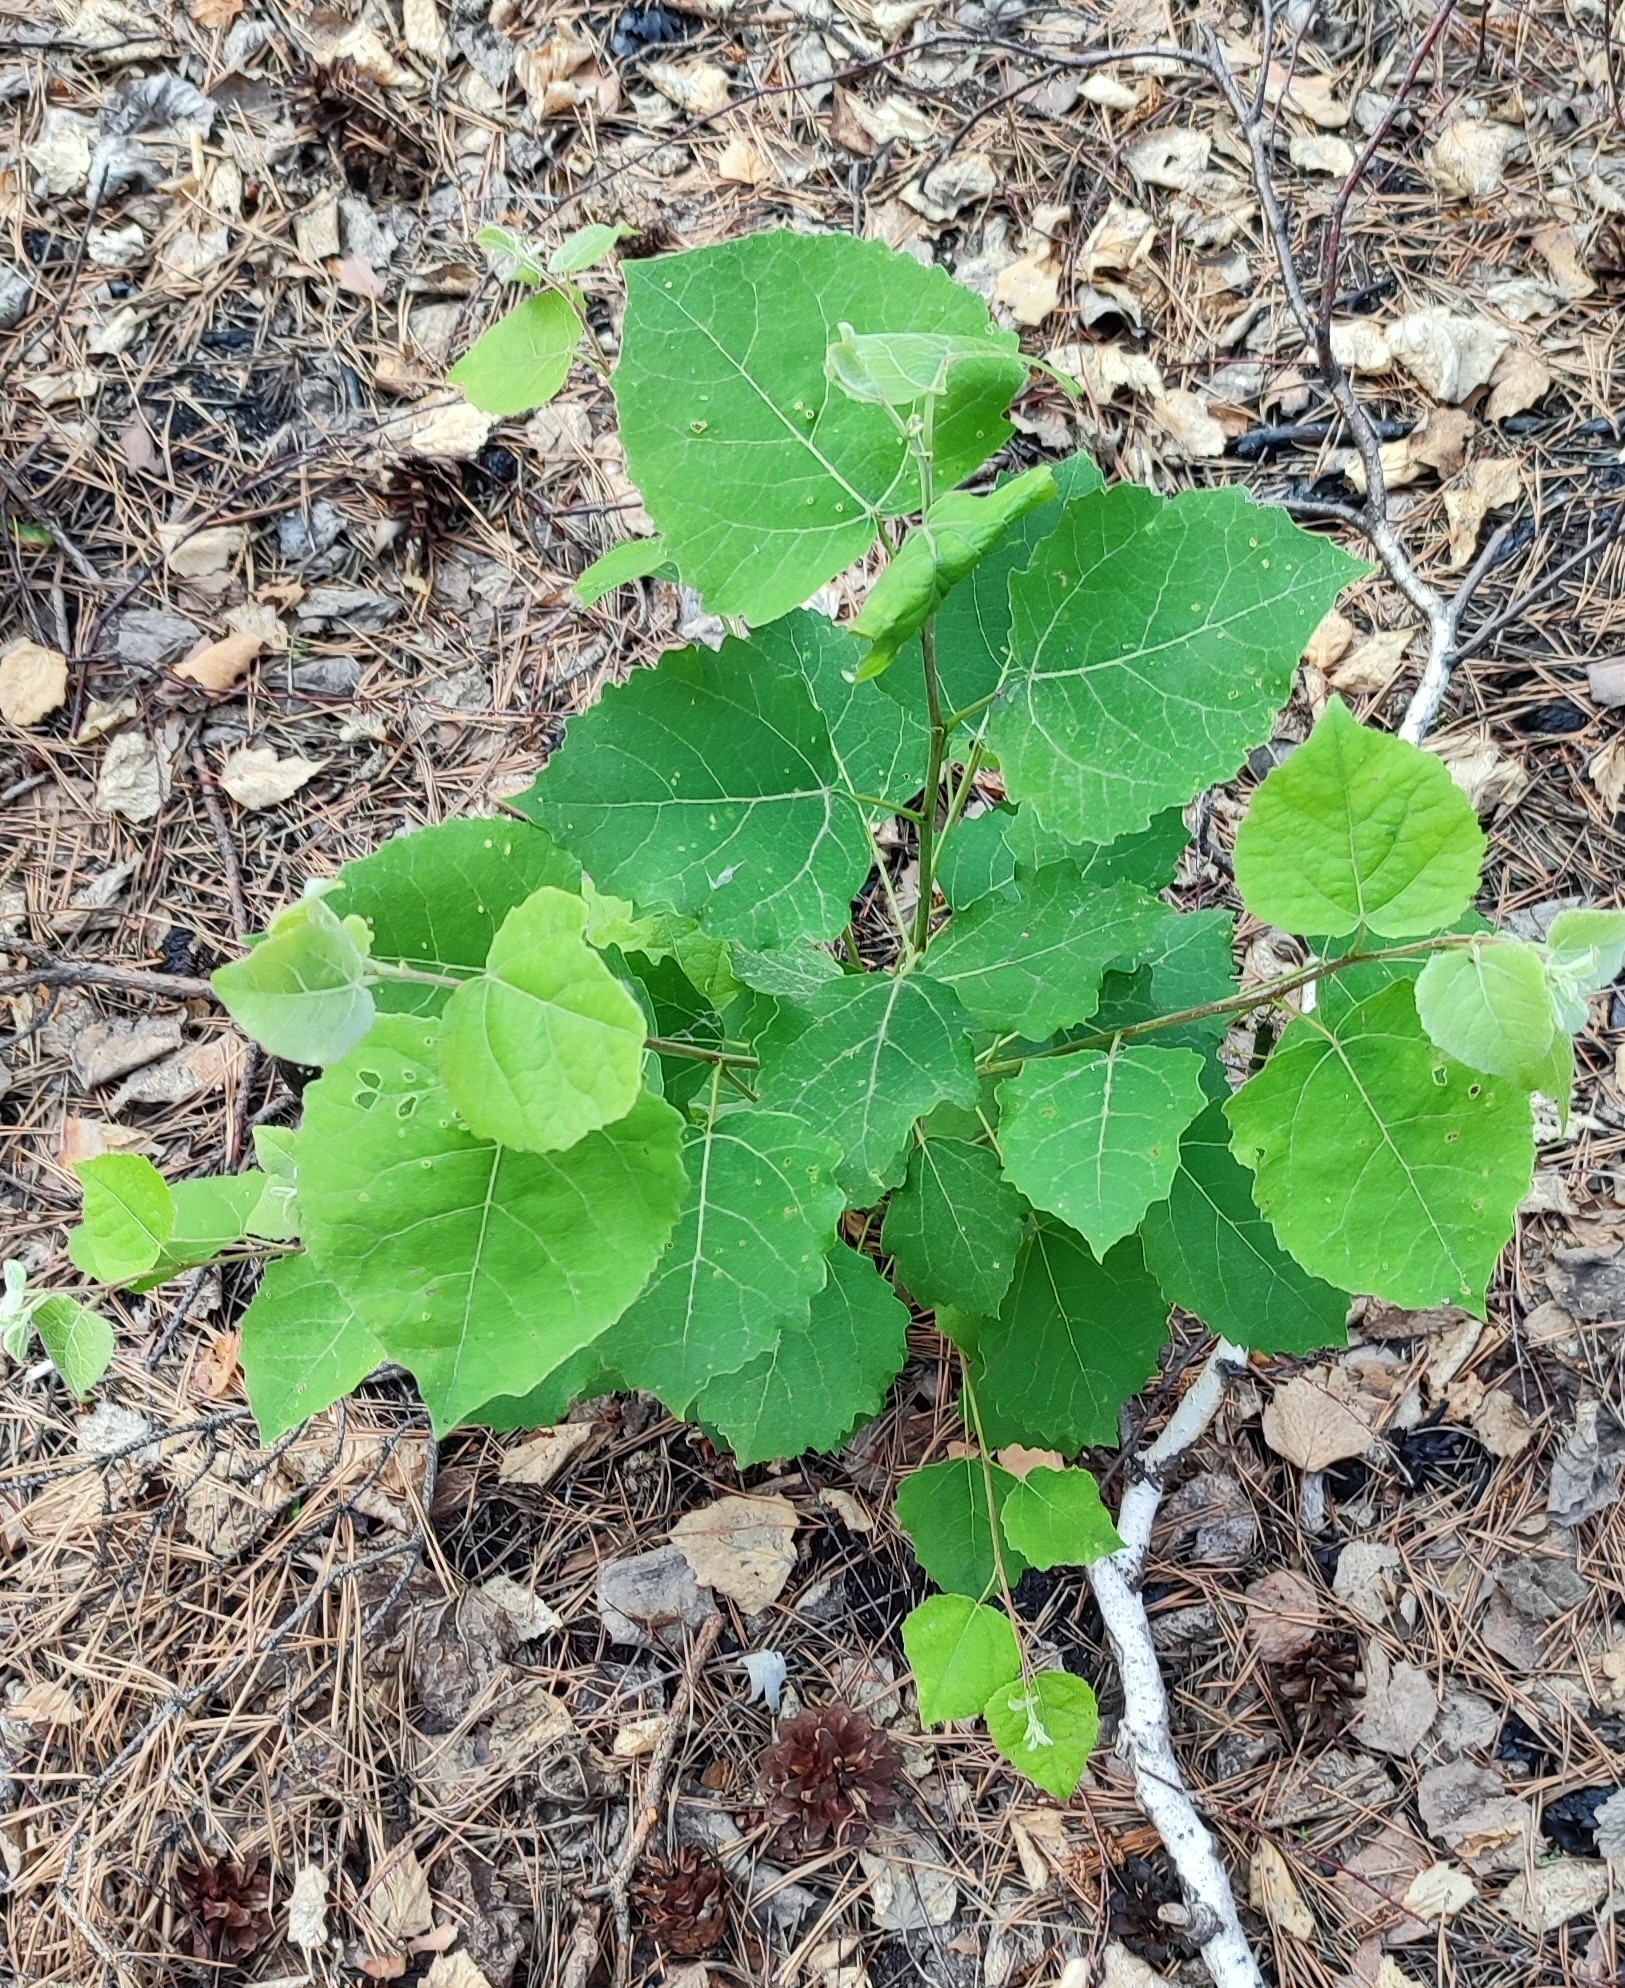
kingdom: Plantae
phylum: Tracheophyta
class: Magnoliopsida
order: Malpighiales
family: Salicaceae
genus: Populus
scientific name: Populus tremula
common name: European aspen
